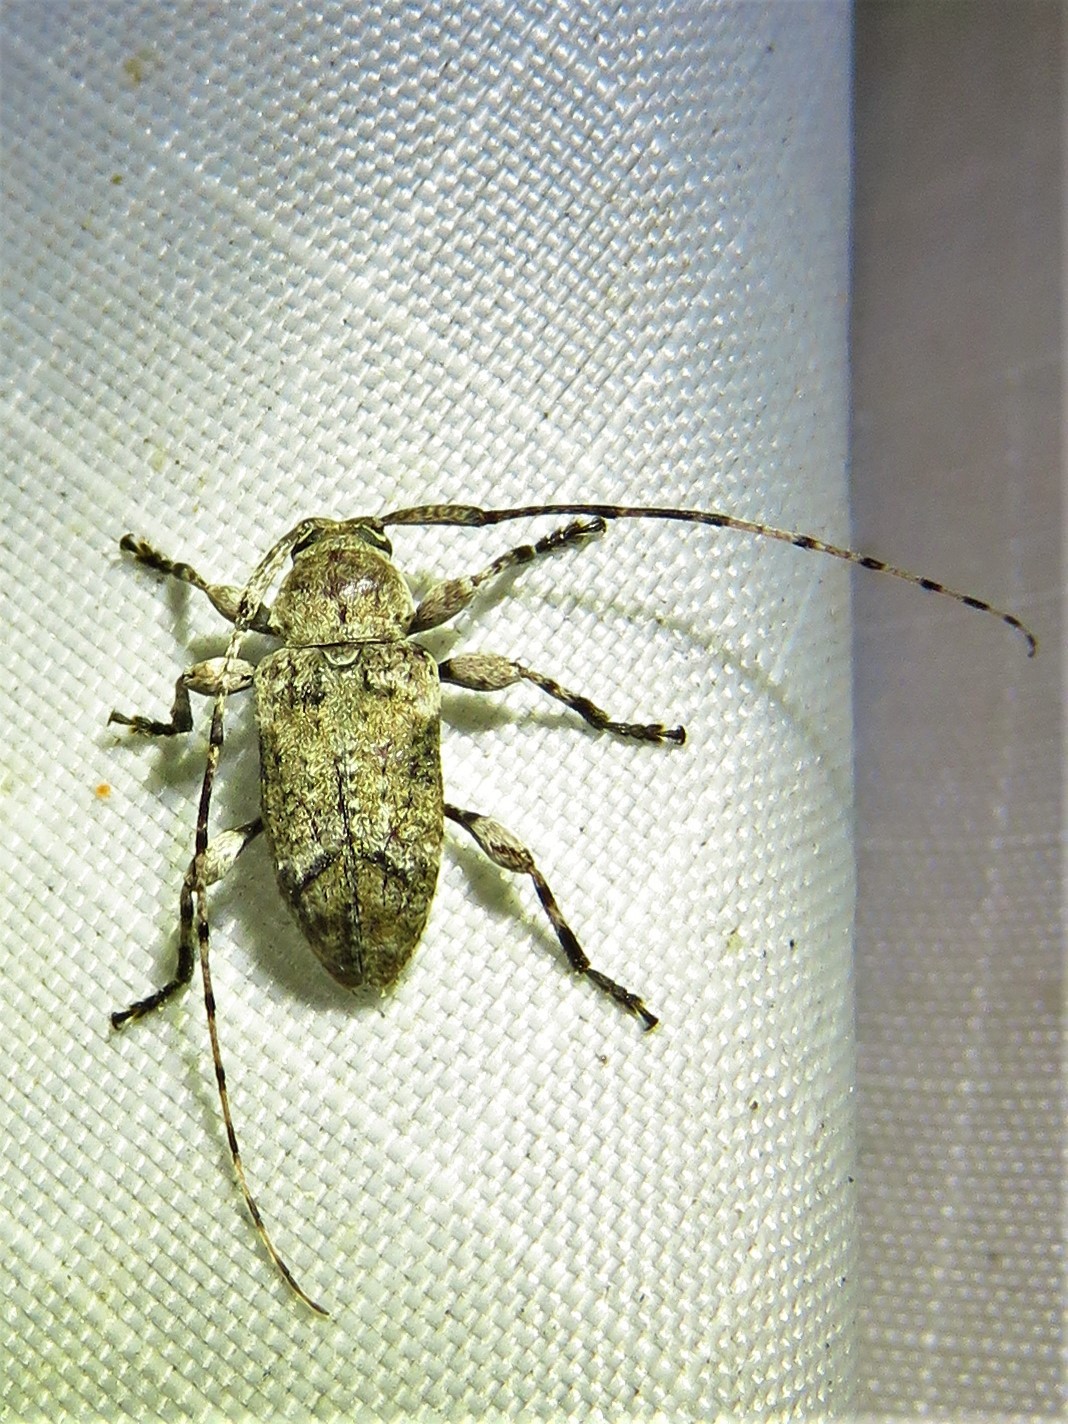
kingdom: Animalia
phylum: Arthropoda
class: Insecta
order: Coleoptera
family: Cerambycidae
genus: Sternidius
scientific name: Sternidius mimeticus
